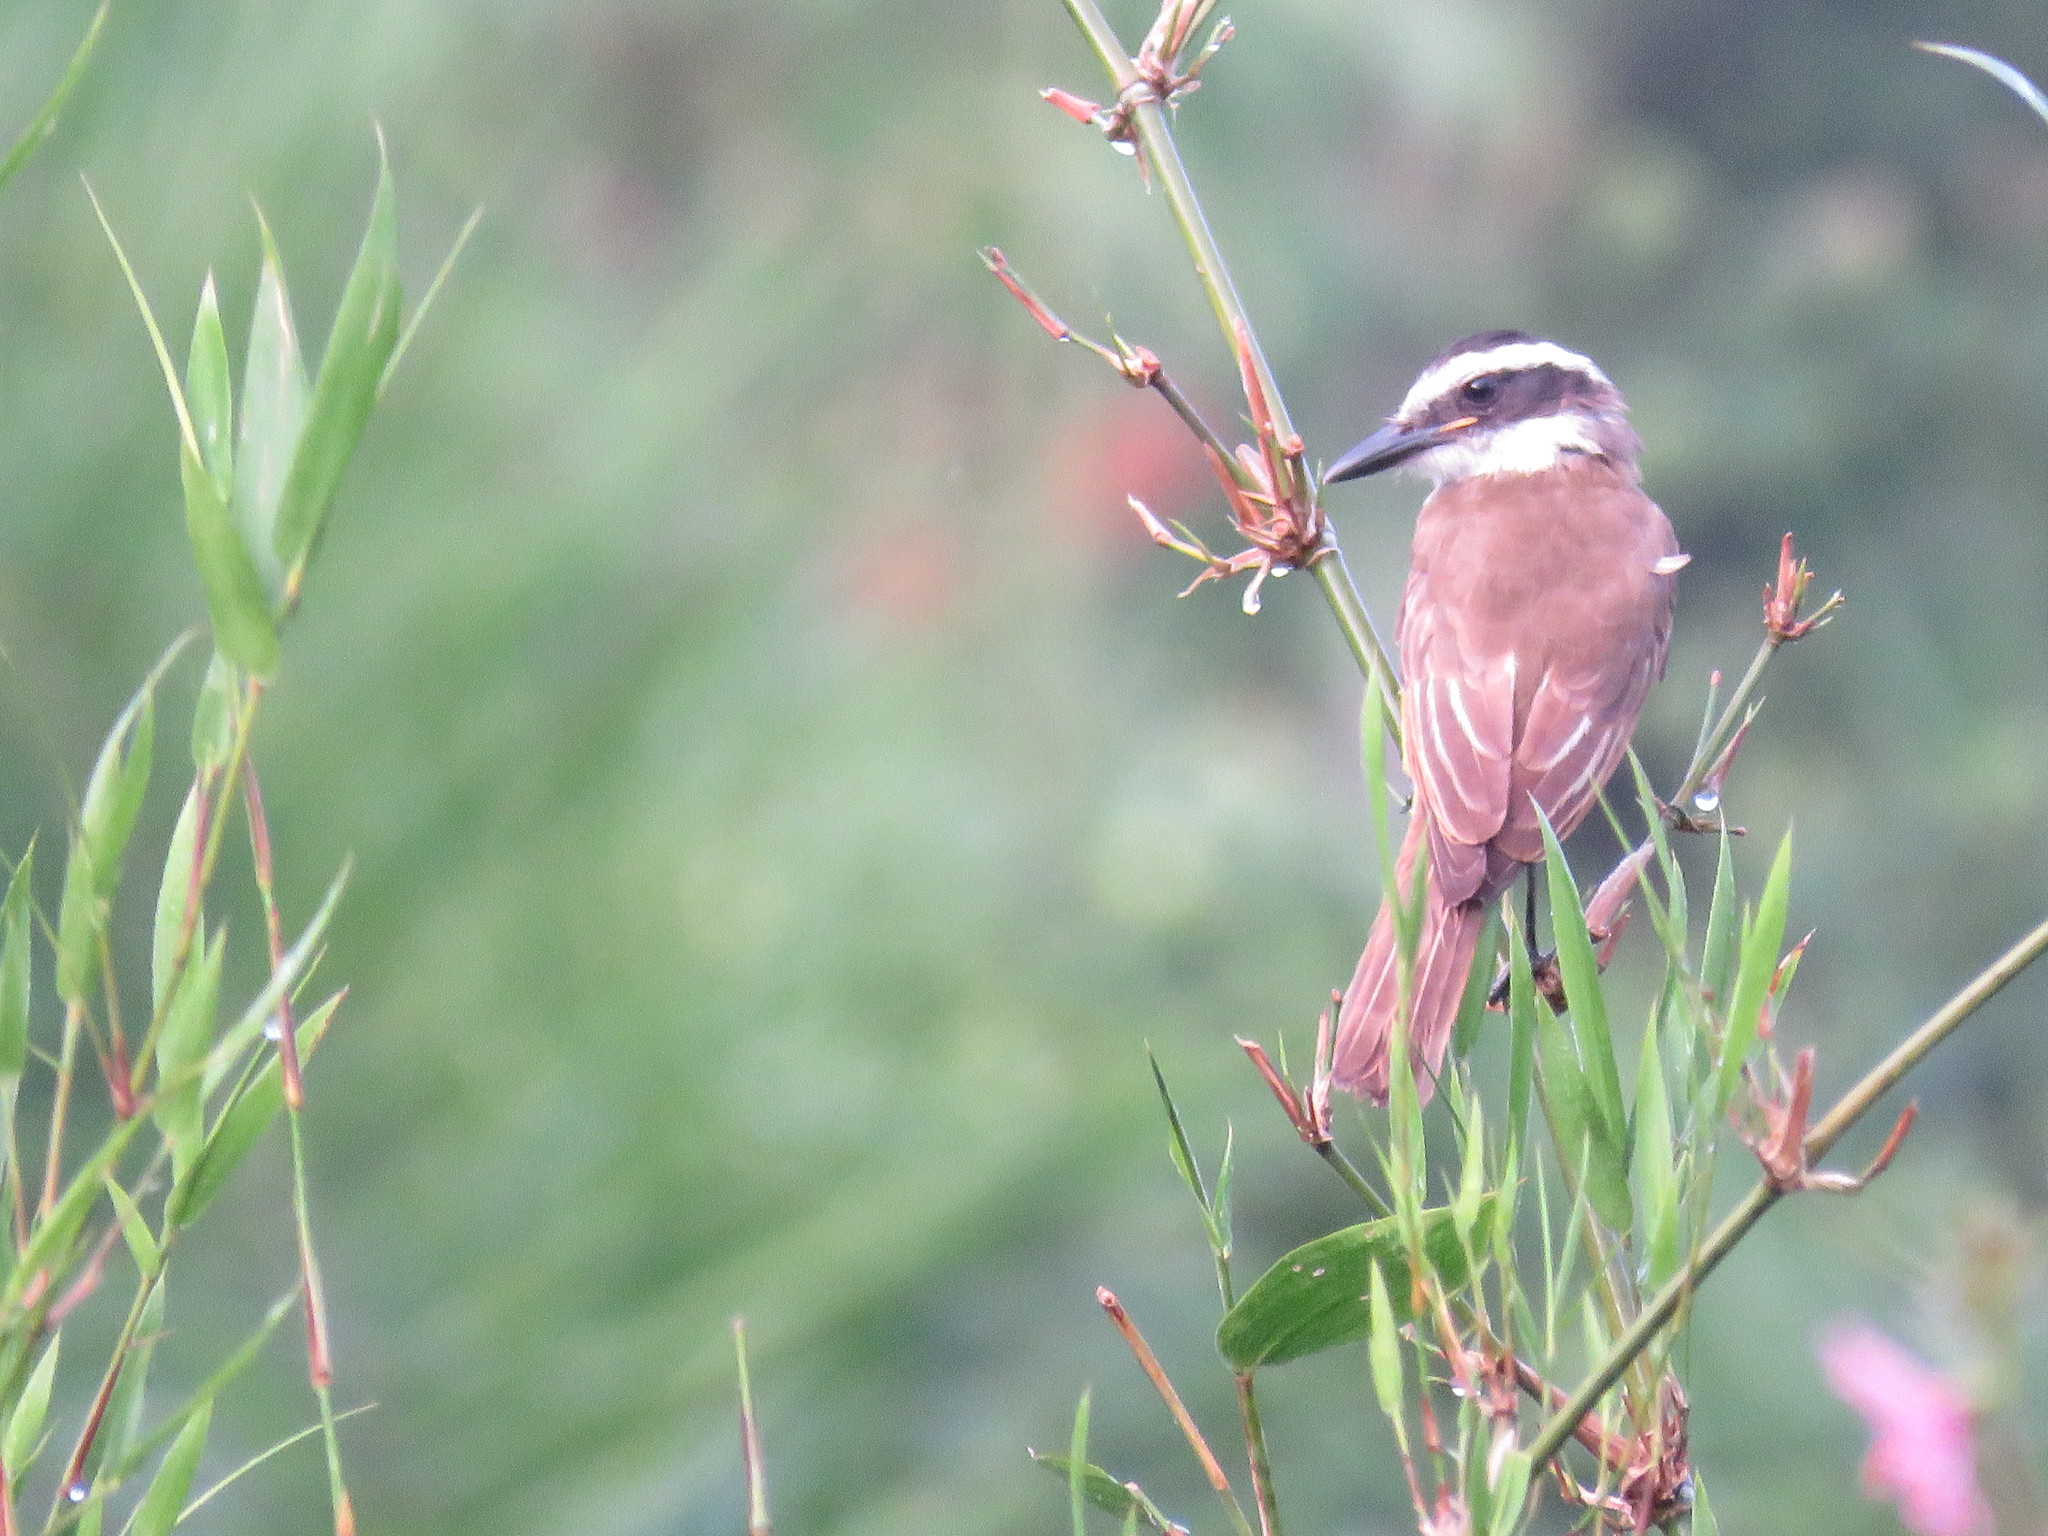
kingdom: Animalia
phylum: Chordata
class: Aves
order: Passeriformes
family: Tyrannidae
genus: Pitangus
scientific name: Pitangus sulphuratus
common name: Great kiskadee
